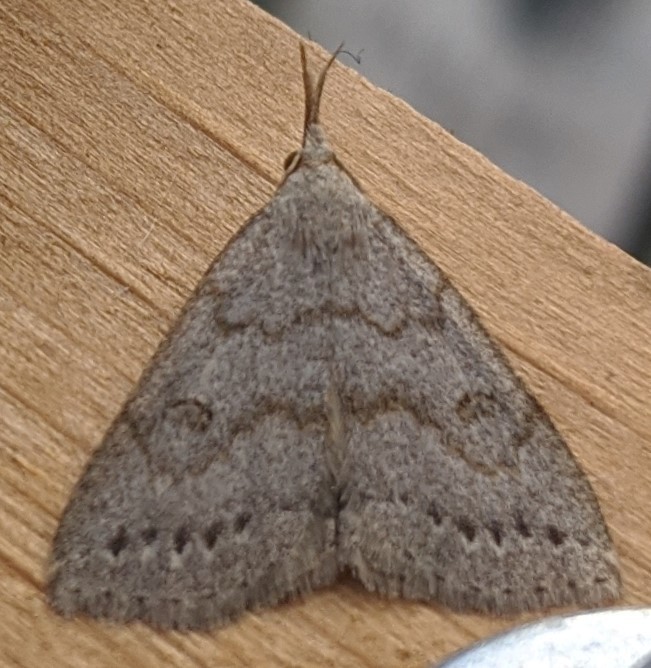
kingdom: Animalia
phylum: Arthropoda
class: Insecta
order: Lepidoptera
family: Erebidae
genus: Macrochilo
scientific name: Macrochilo morbidalis
